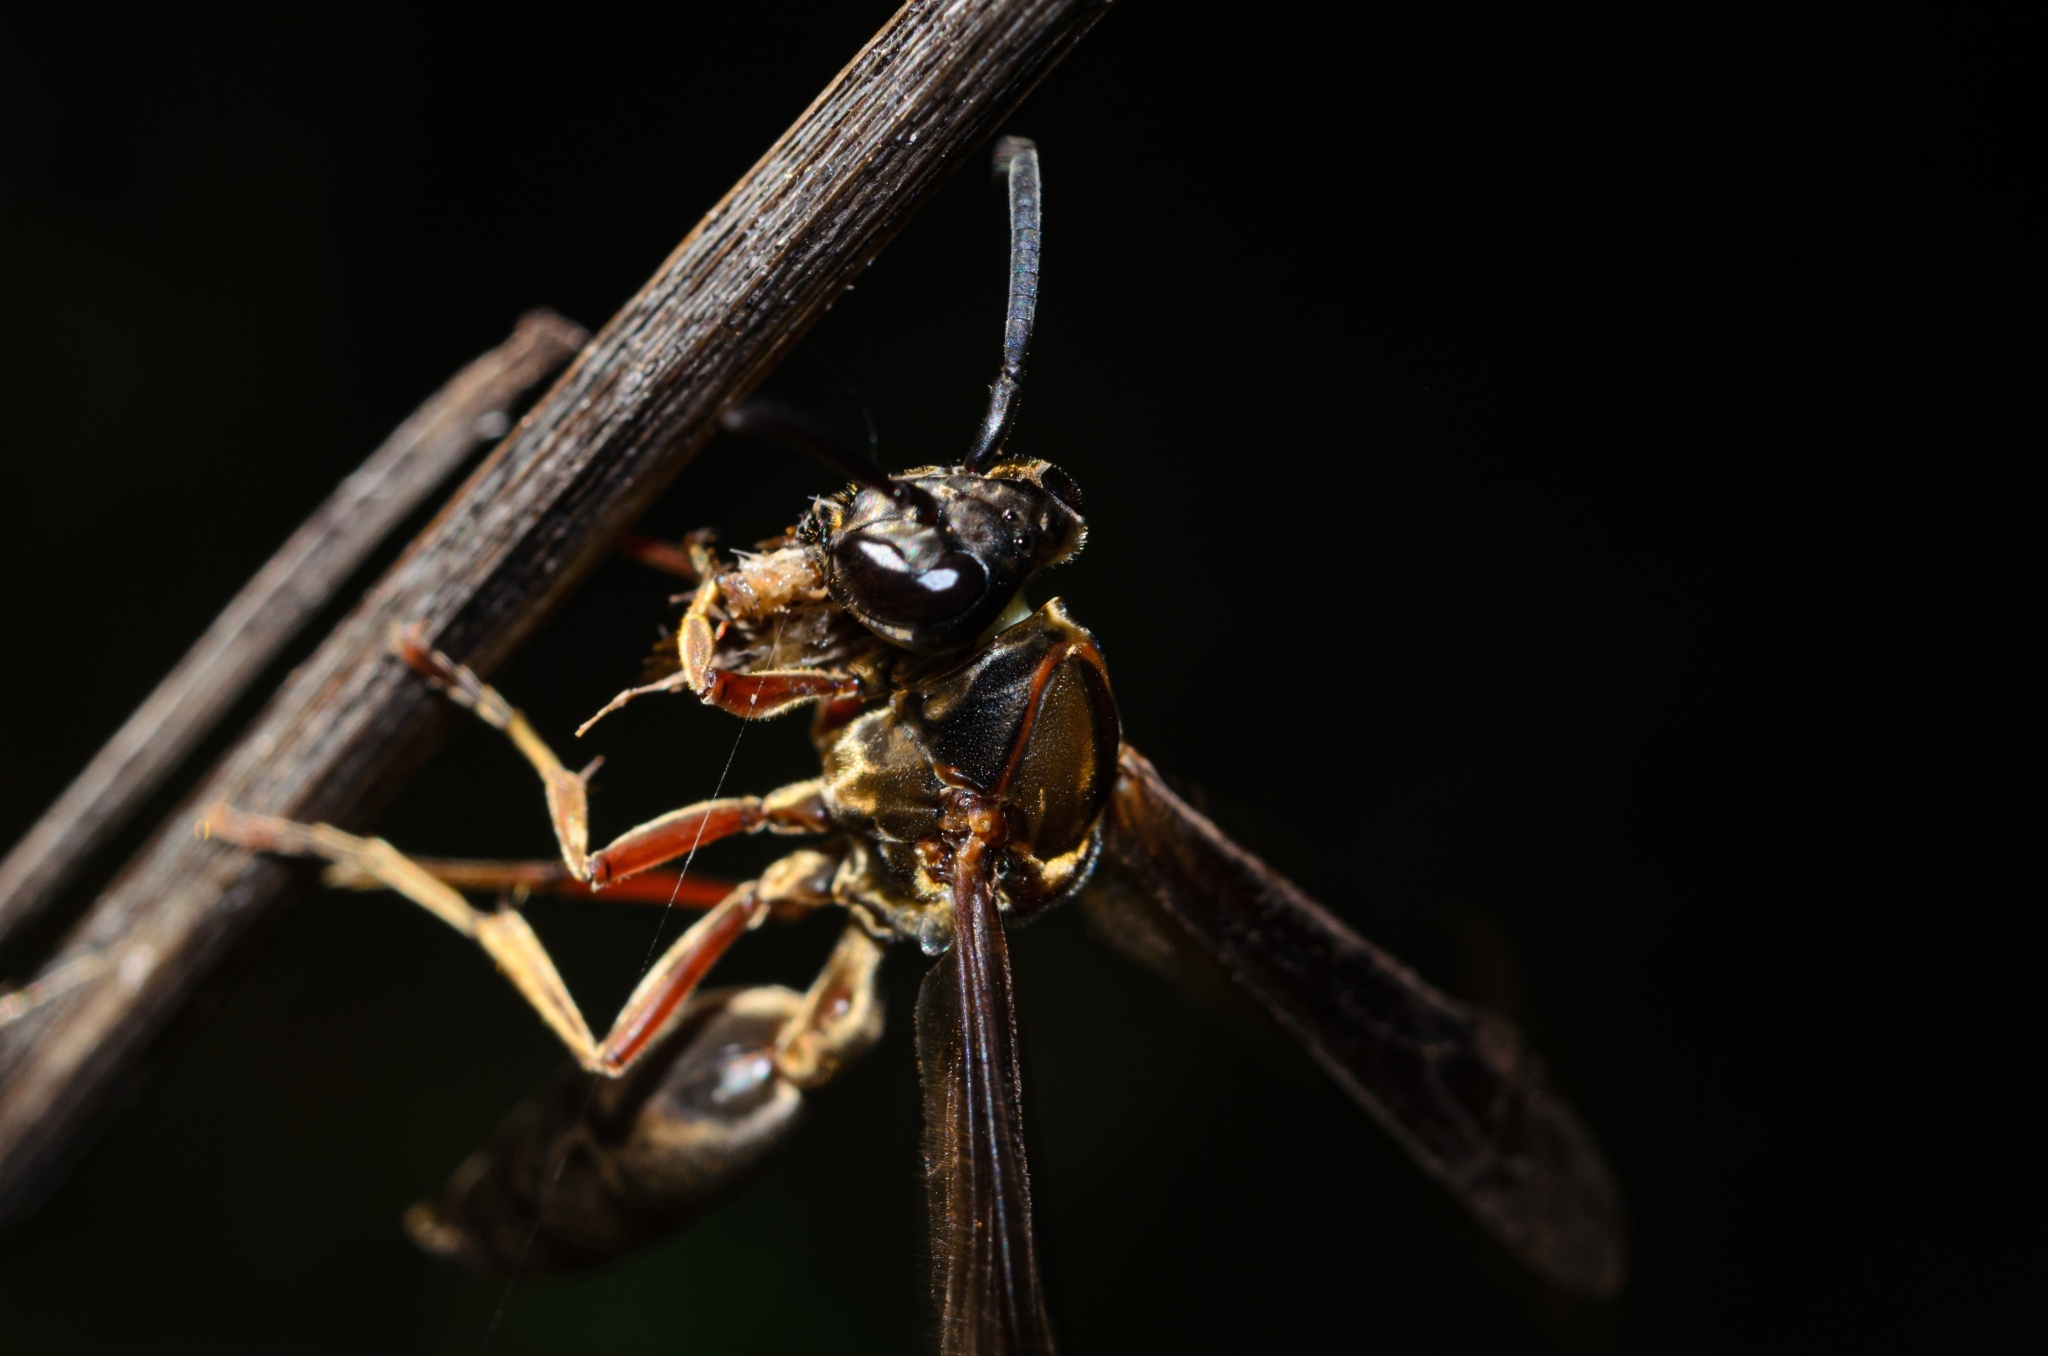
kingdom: Animalia
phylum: Arthropoda
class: Insecta
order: Hymenoptera
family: Eumenidae
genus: Polybia
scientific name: Polybia sericea
